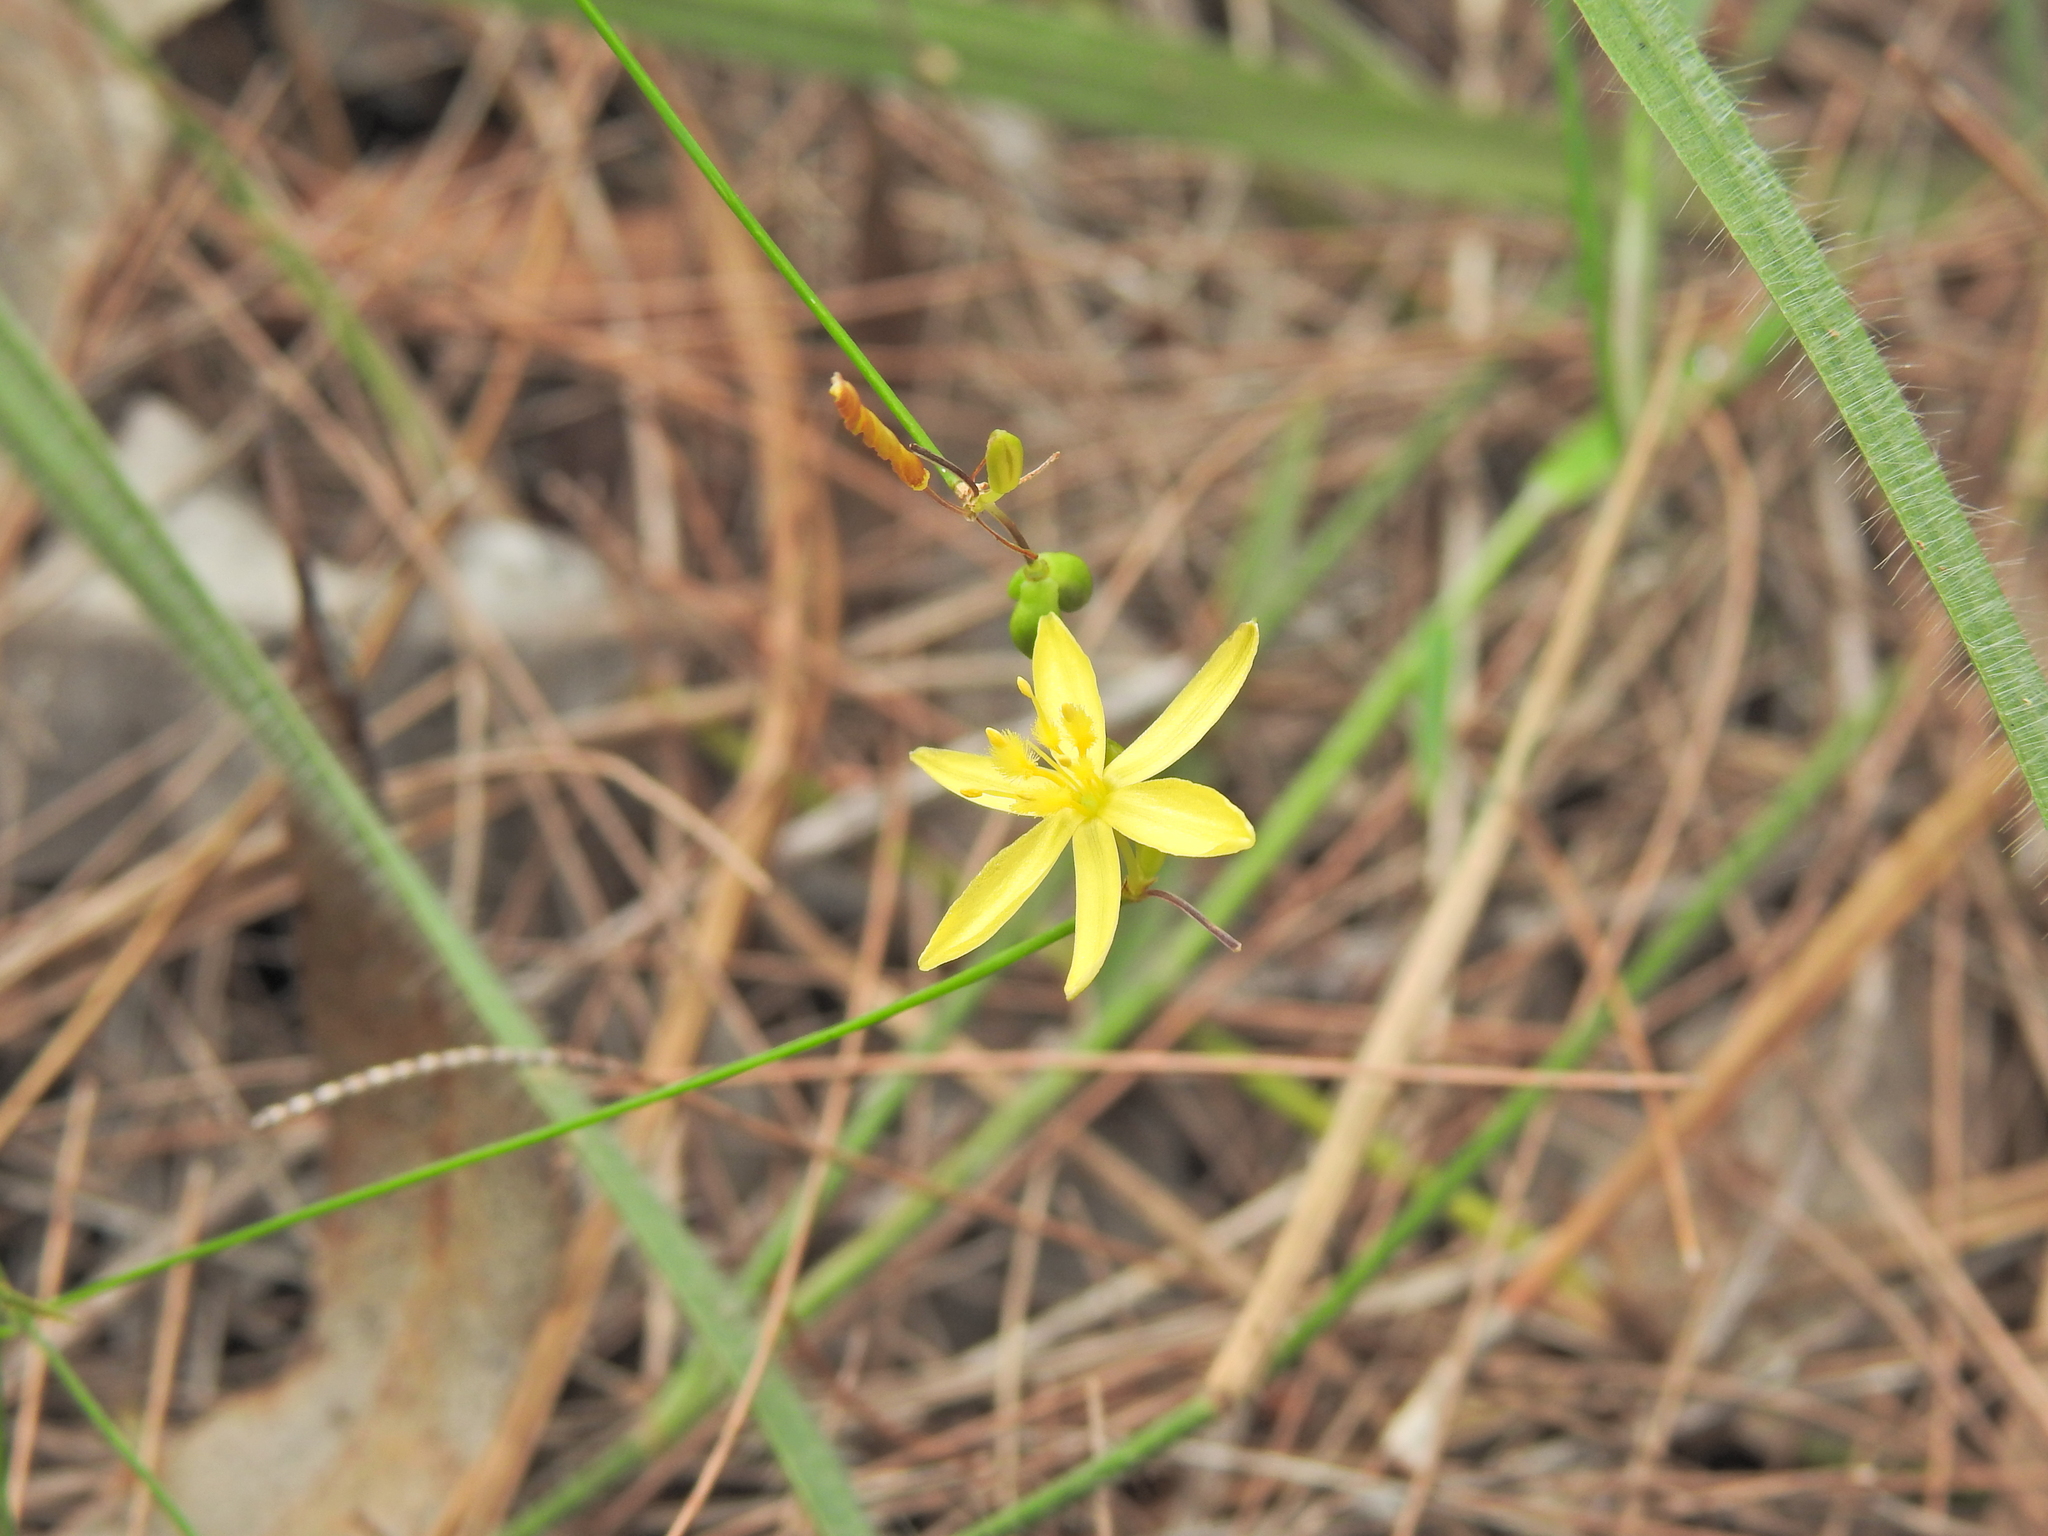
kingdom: Plantae
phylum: Tracheophyta
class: Liliopsida
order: Asparagales
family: Asphodelaceae
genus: Tricoryne
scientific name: Tricoryne elatior
